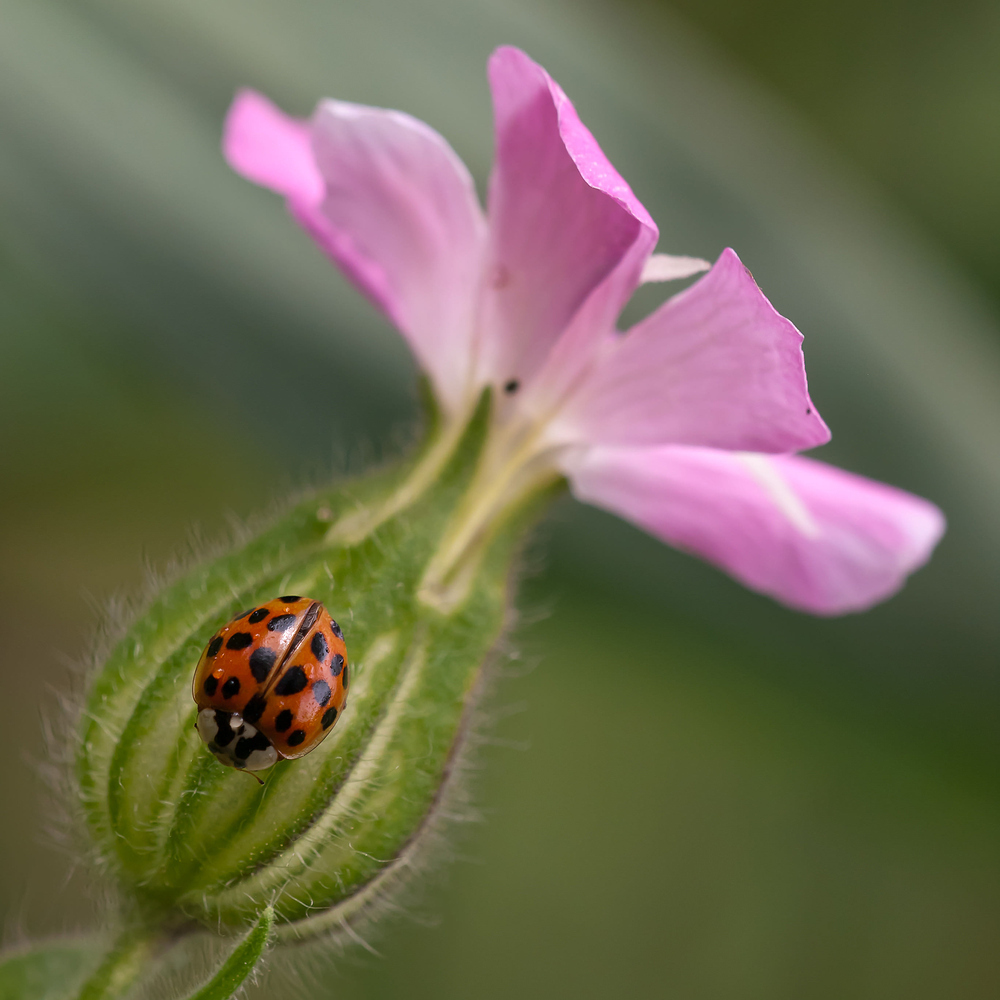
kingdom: Animalia
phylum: Arthropoda
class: Insecta
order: Coleoptera
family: Coccinellidae
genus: Harmonia
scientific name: Harmonia axyridis
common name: Harlequin ladybird
